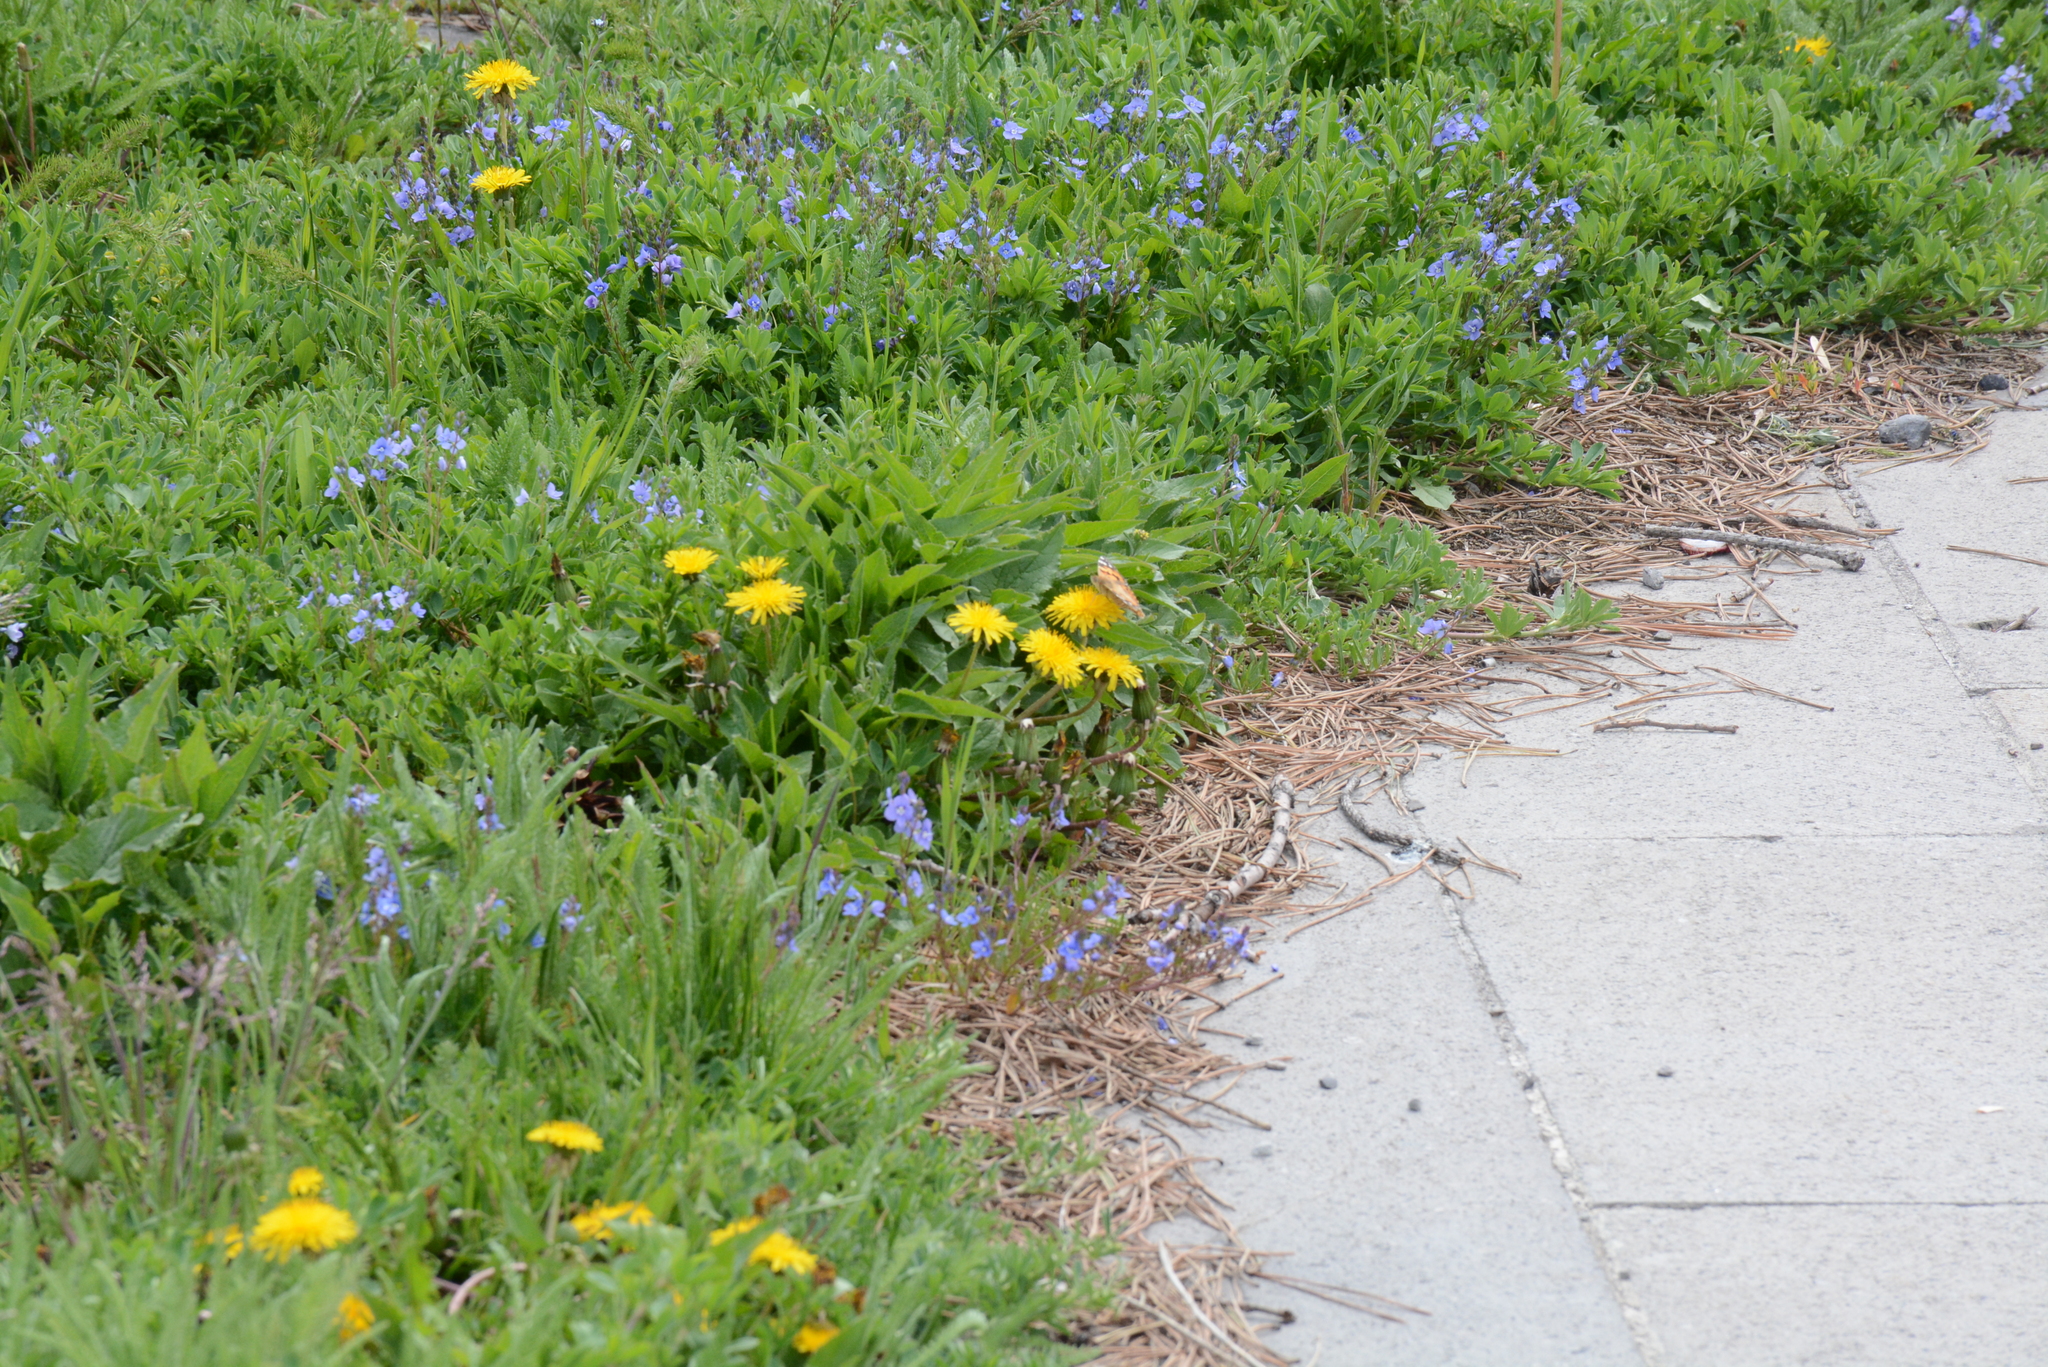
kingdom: Animalia
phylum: Arthropoda
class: Insecta
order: Lepidoptera
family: Nymphalidae
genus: Vanessa
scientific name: Vanessa cardui
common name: Painted lady
